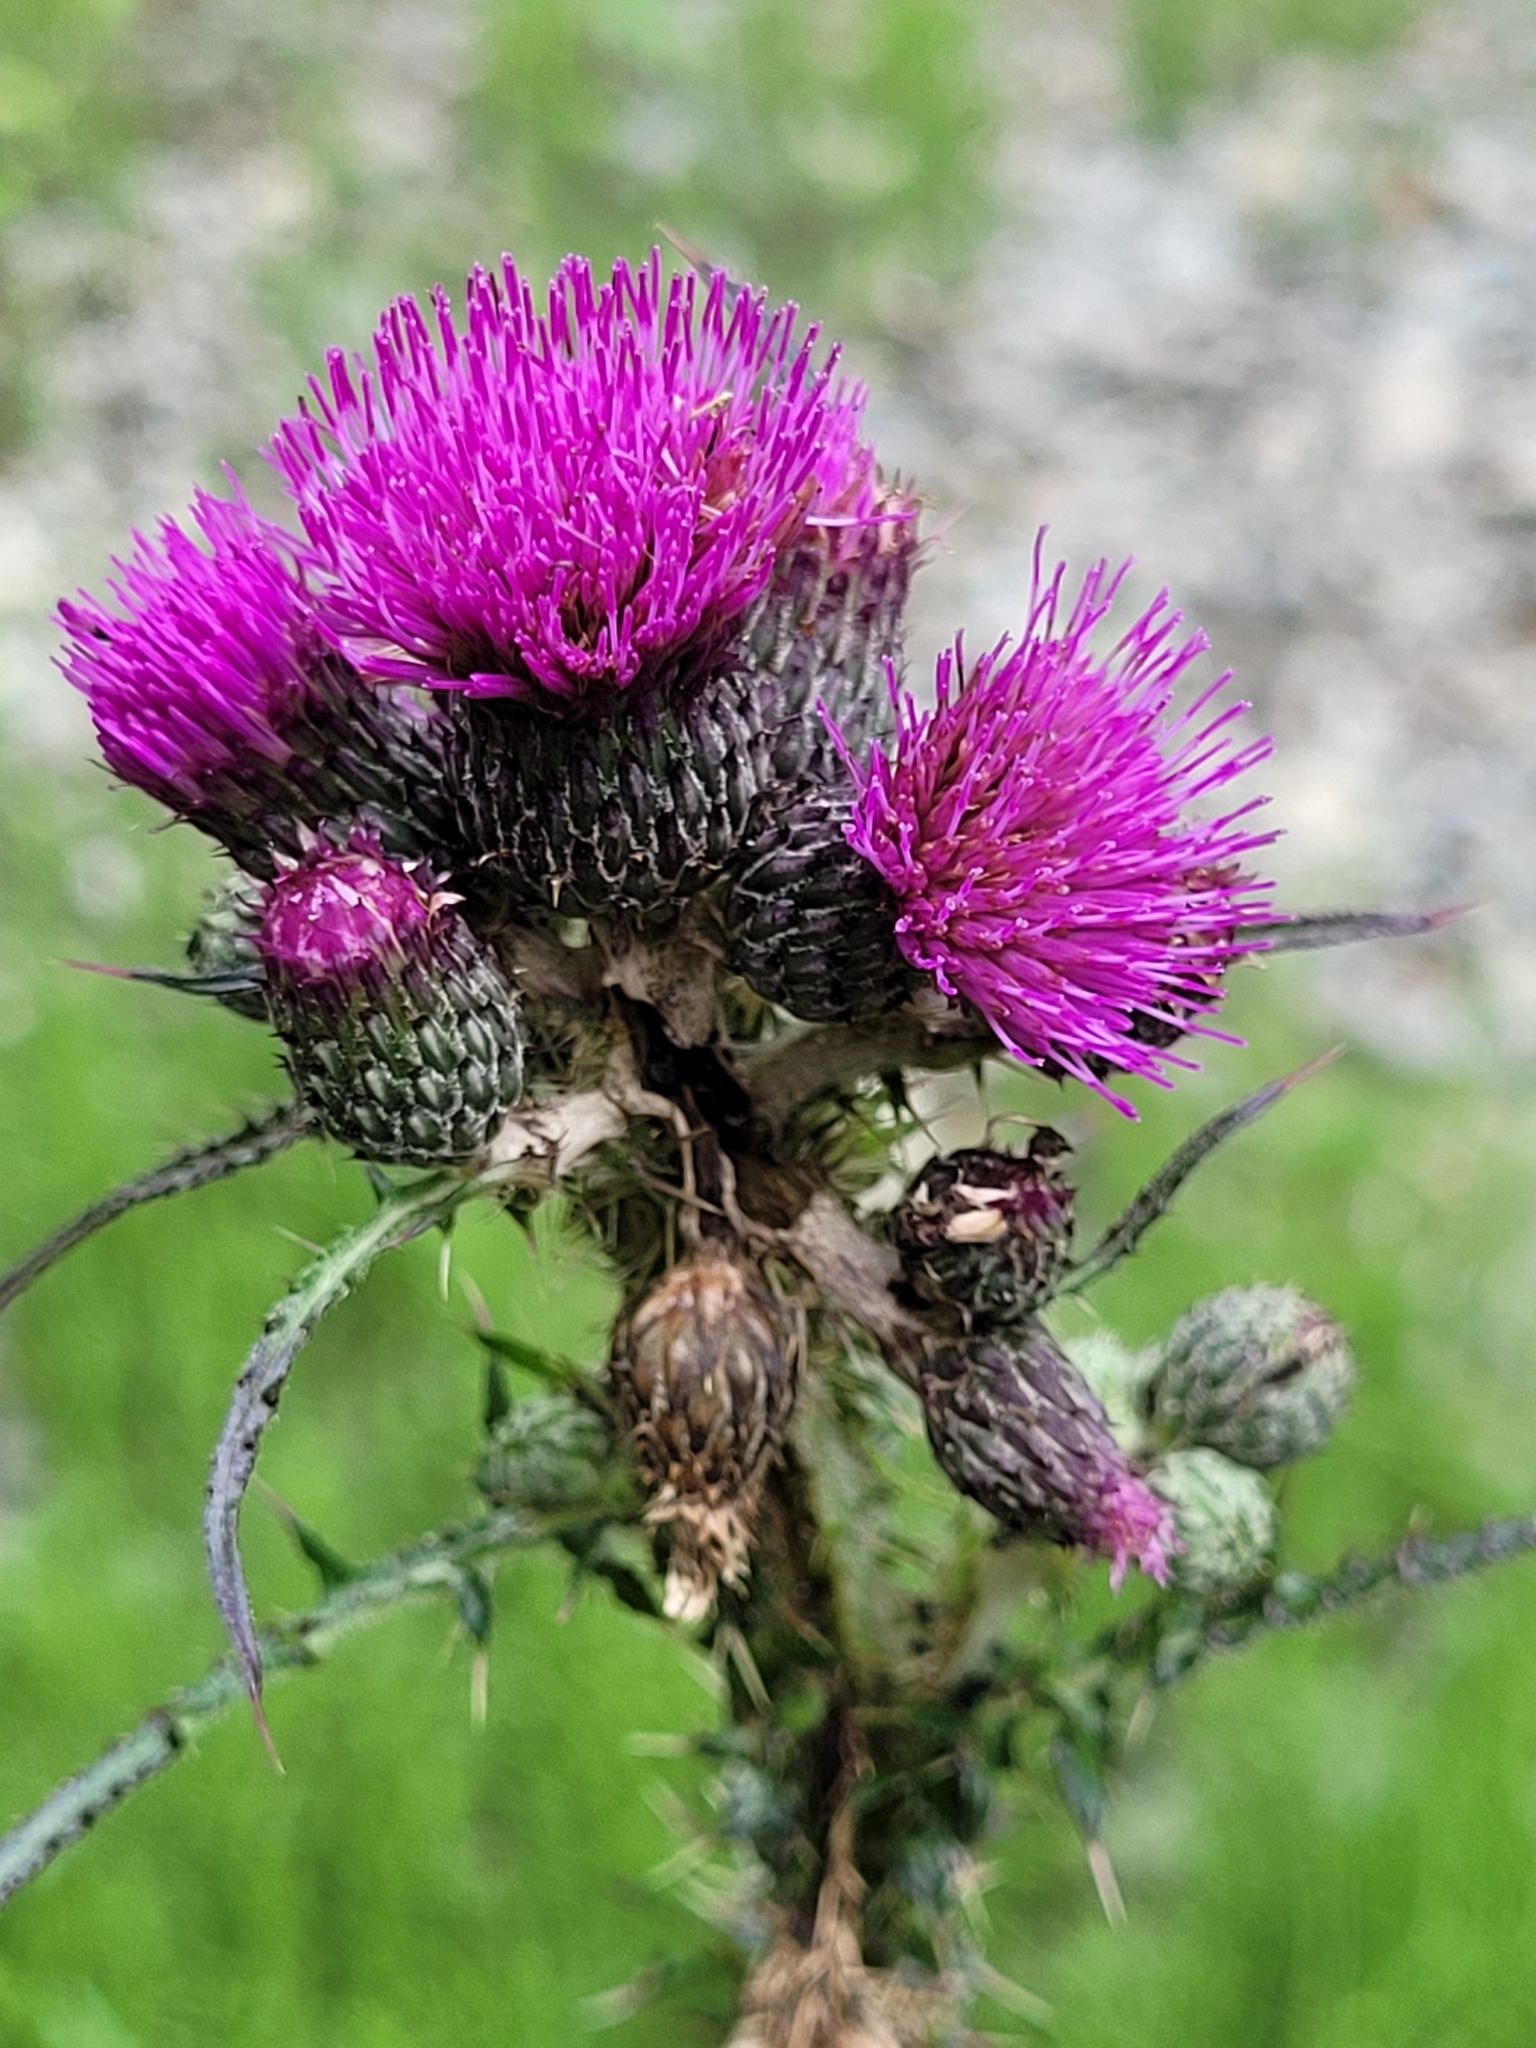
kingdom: Plantae
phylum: Tracheophyta
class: Magnoliopsida
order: Asterales
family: Asteraceae
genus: Cirsium
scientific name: Cirsium palustre
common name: Marsh thistle
